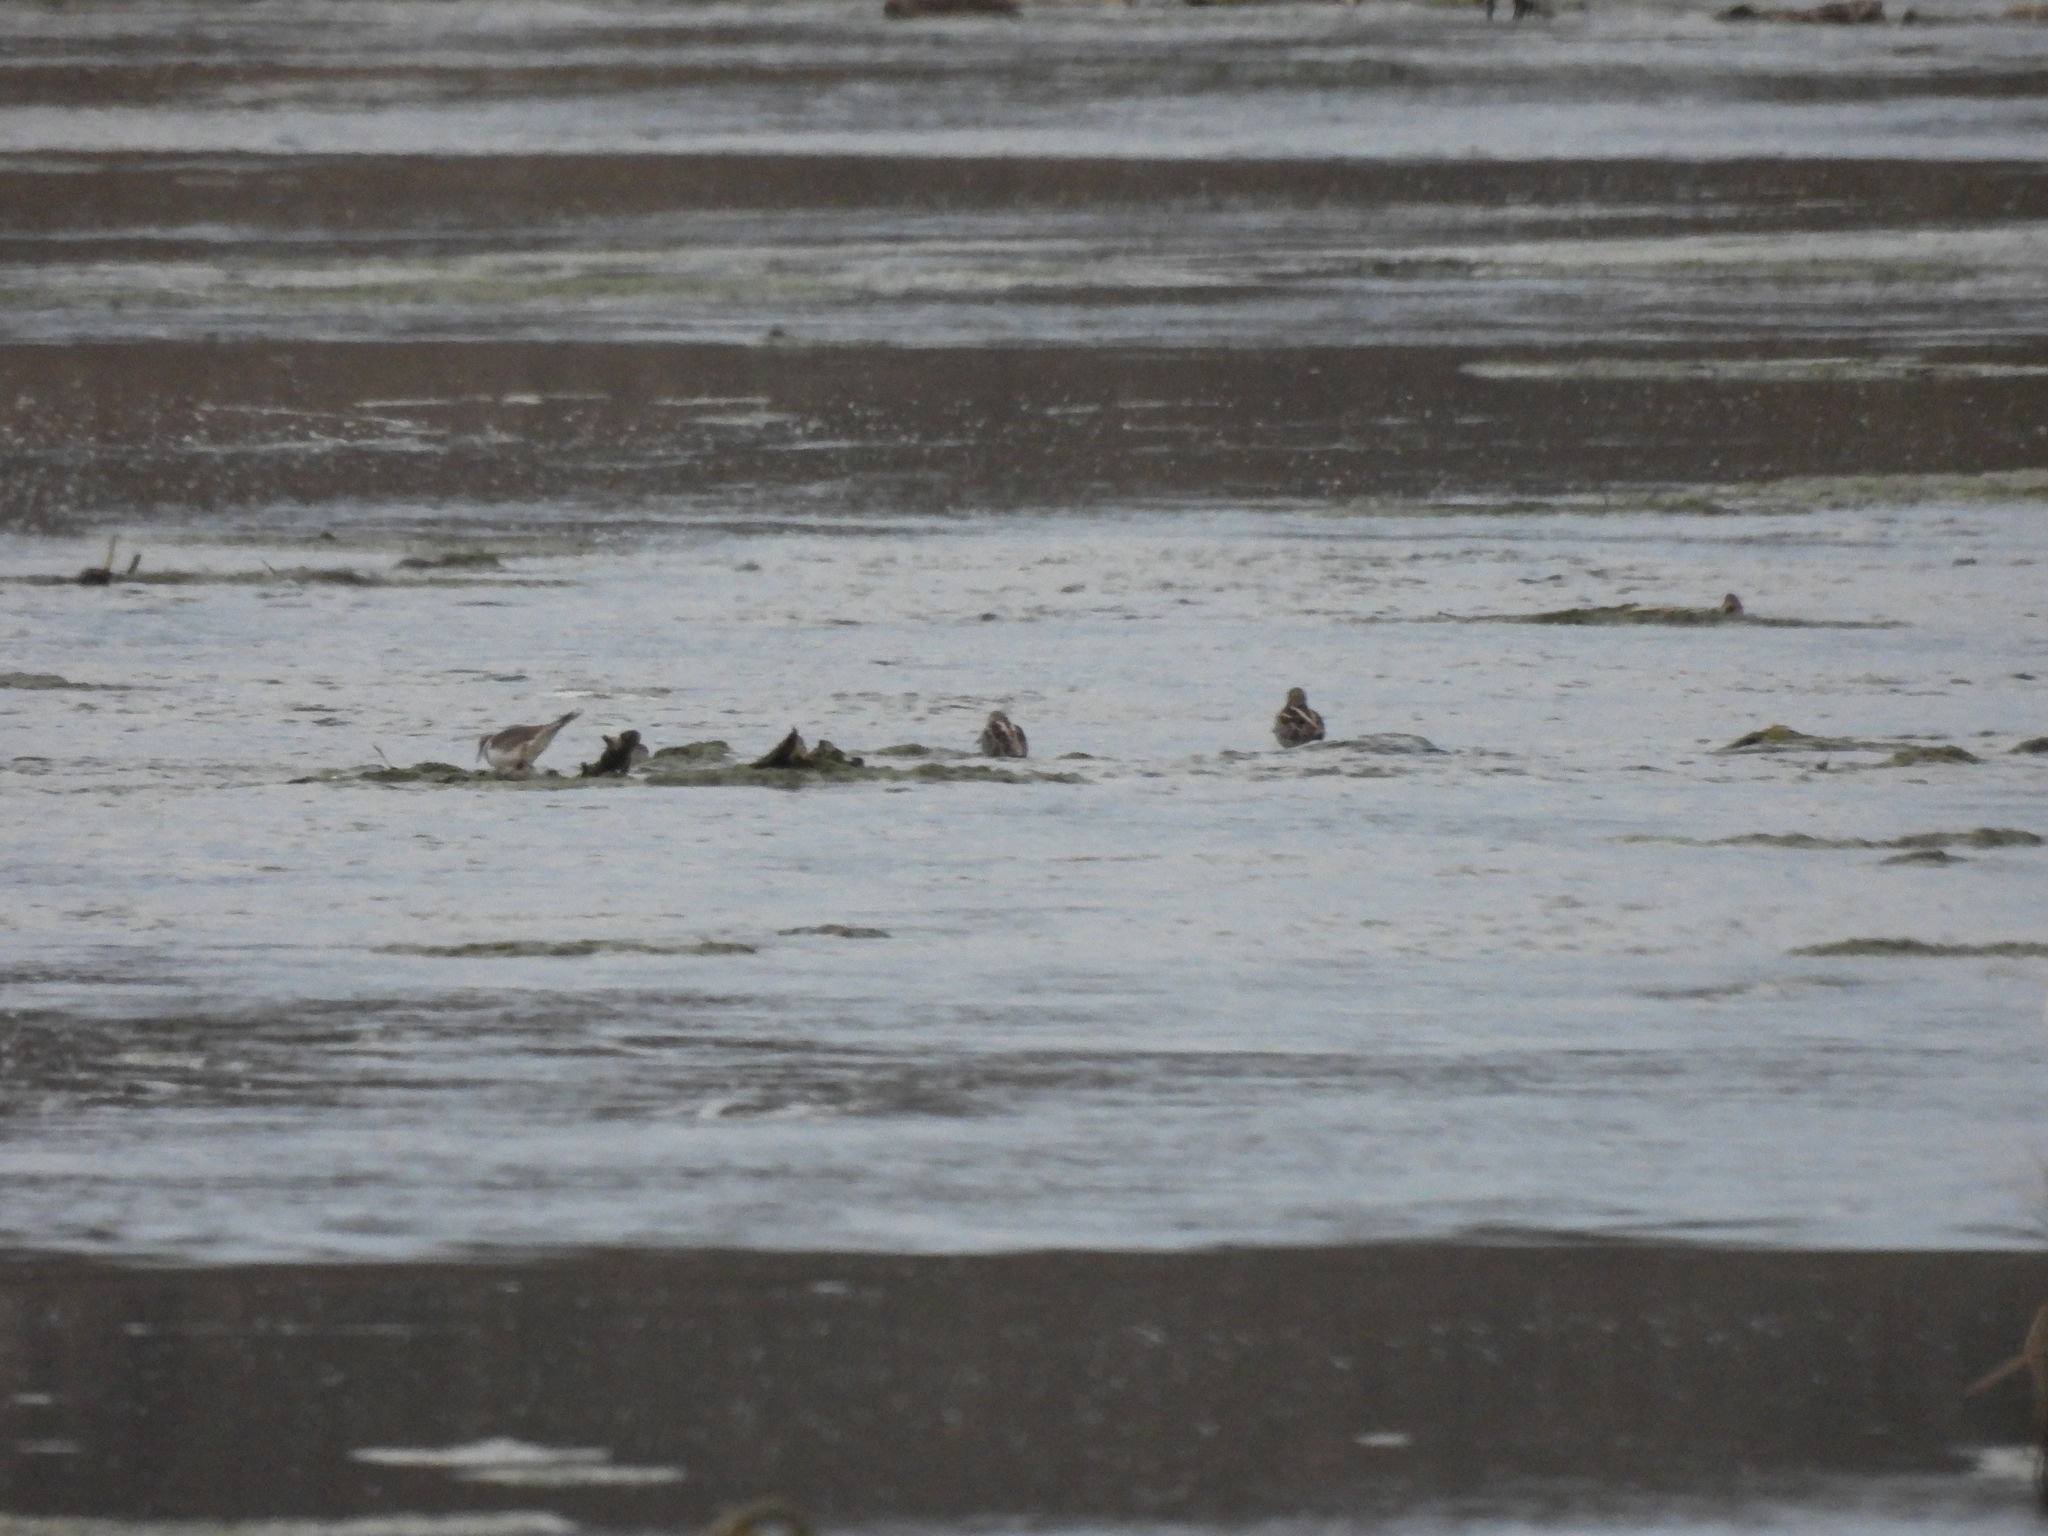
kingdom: Animalia
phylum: Chordata
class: Aves
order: Charadriiformes
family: Scolopacidae
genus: Gallinago
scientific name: Gallinago delicata
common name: Wilson's snipe
